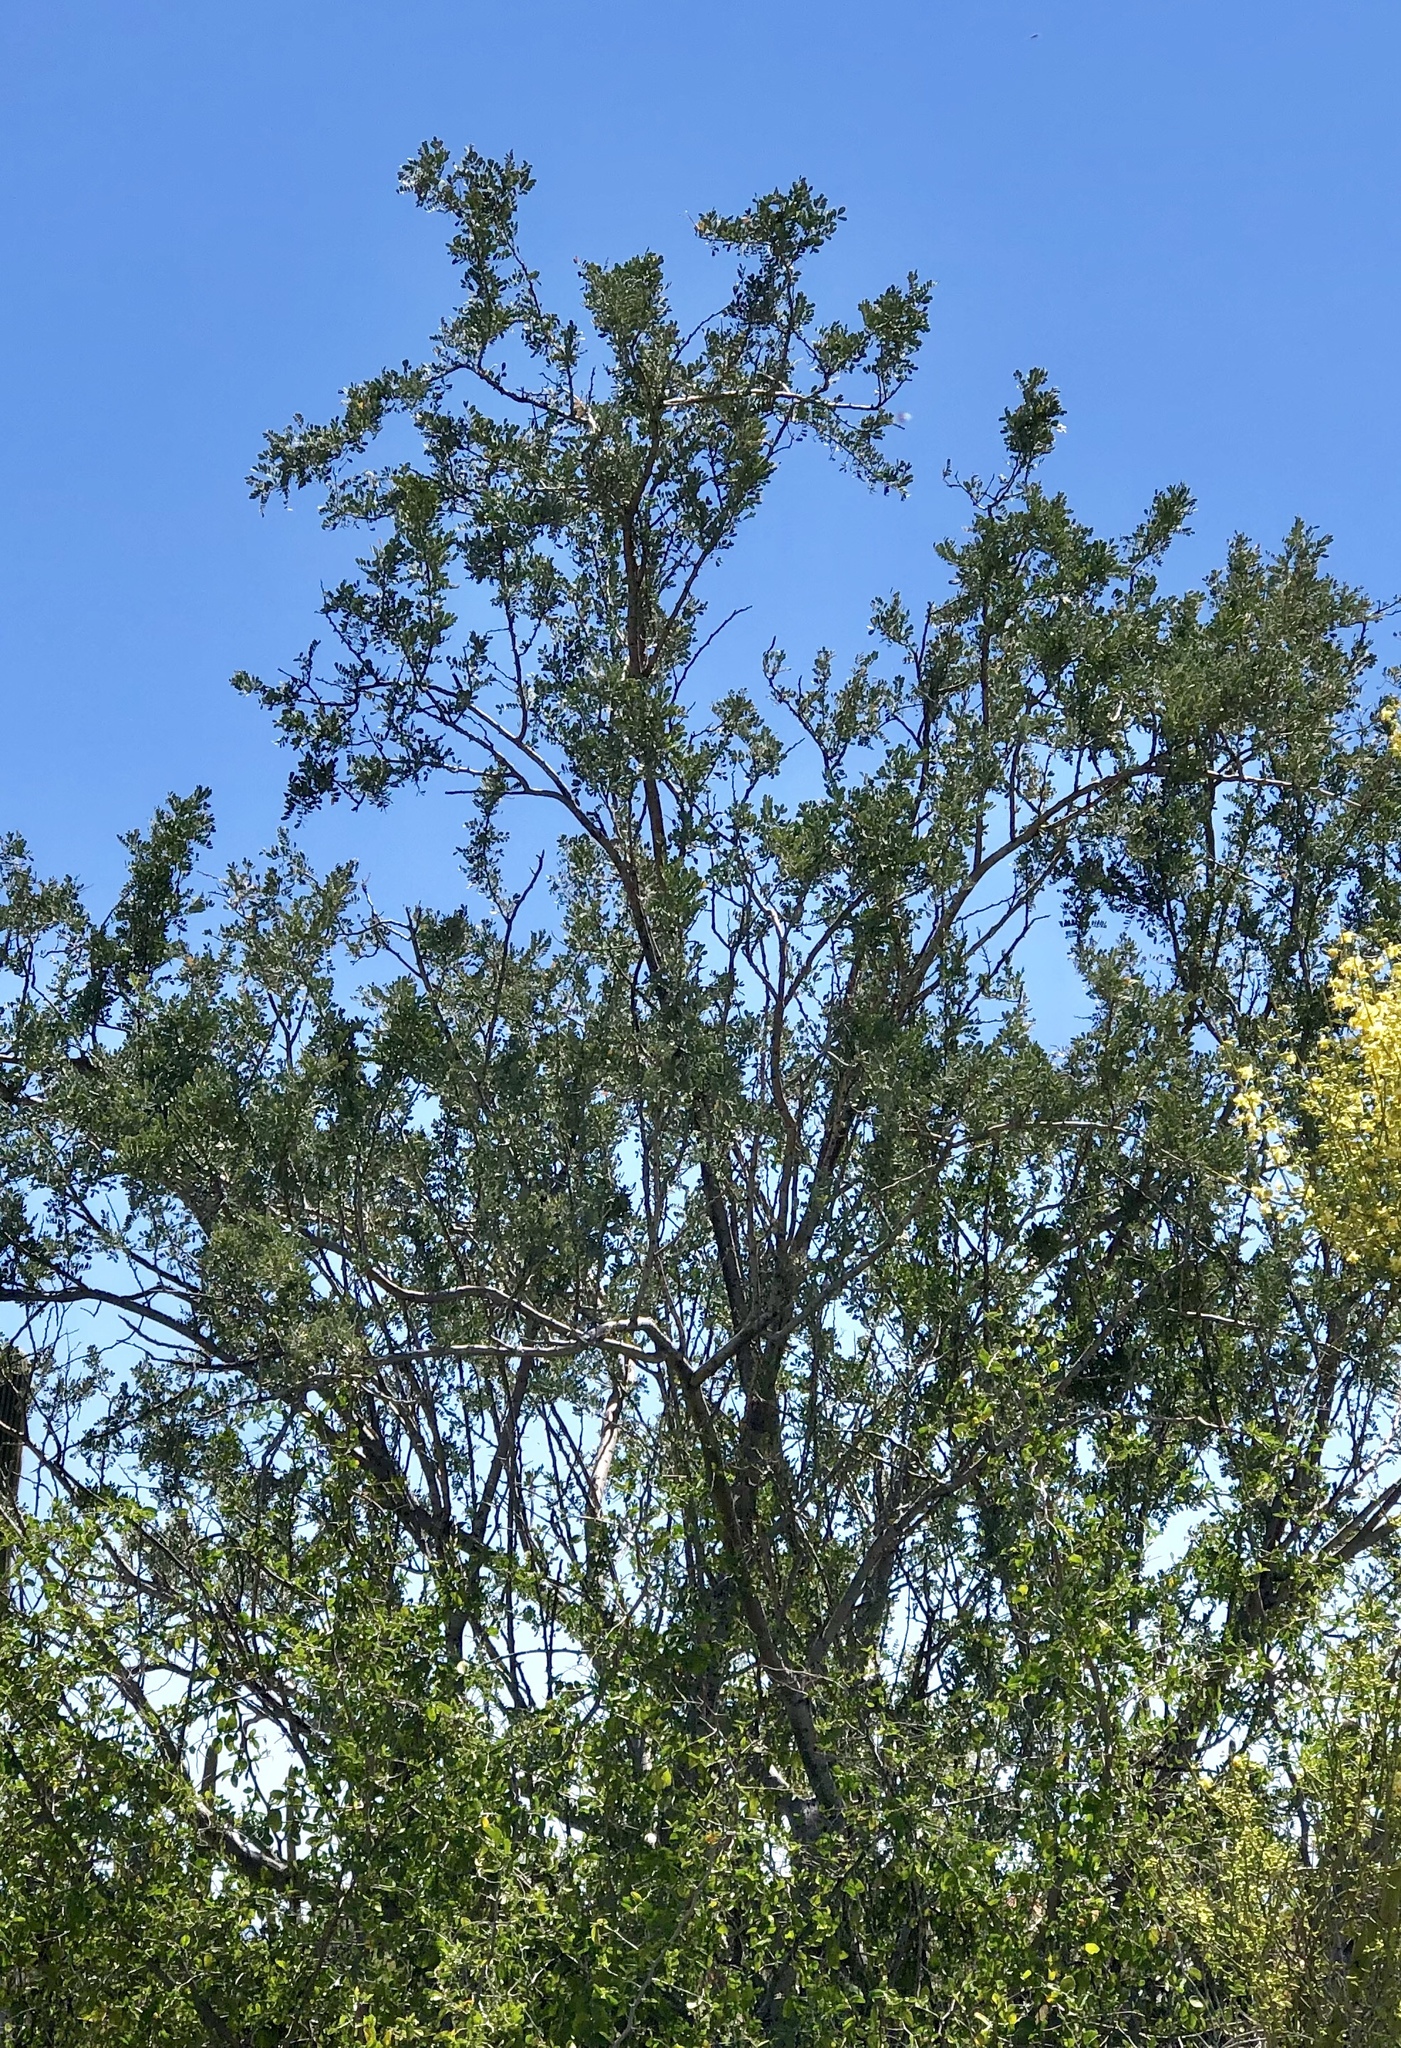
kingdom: Plantae
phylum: Tracheophyta
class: Magnoliopsida
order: Fabales
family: Fabaceae
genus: Olneya
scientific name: Olneya tesota
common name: Desert ironwood
